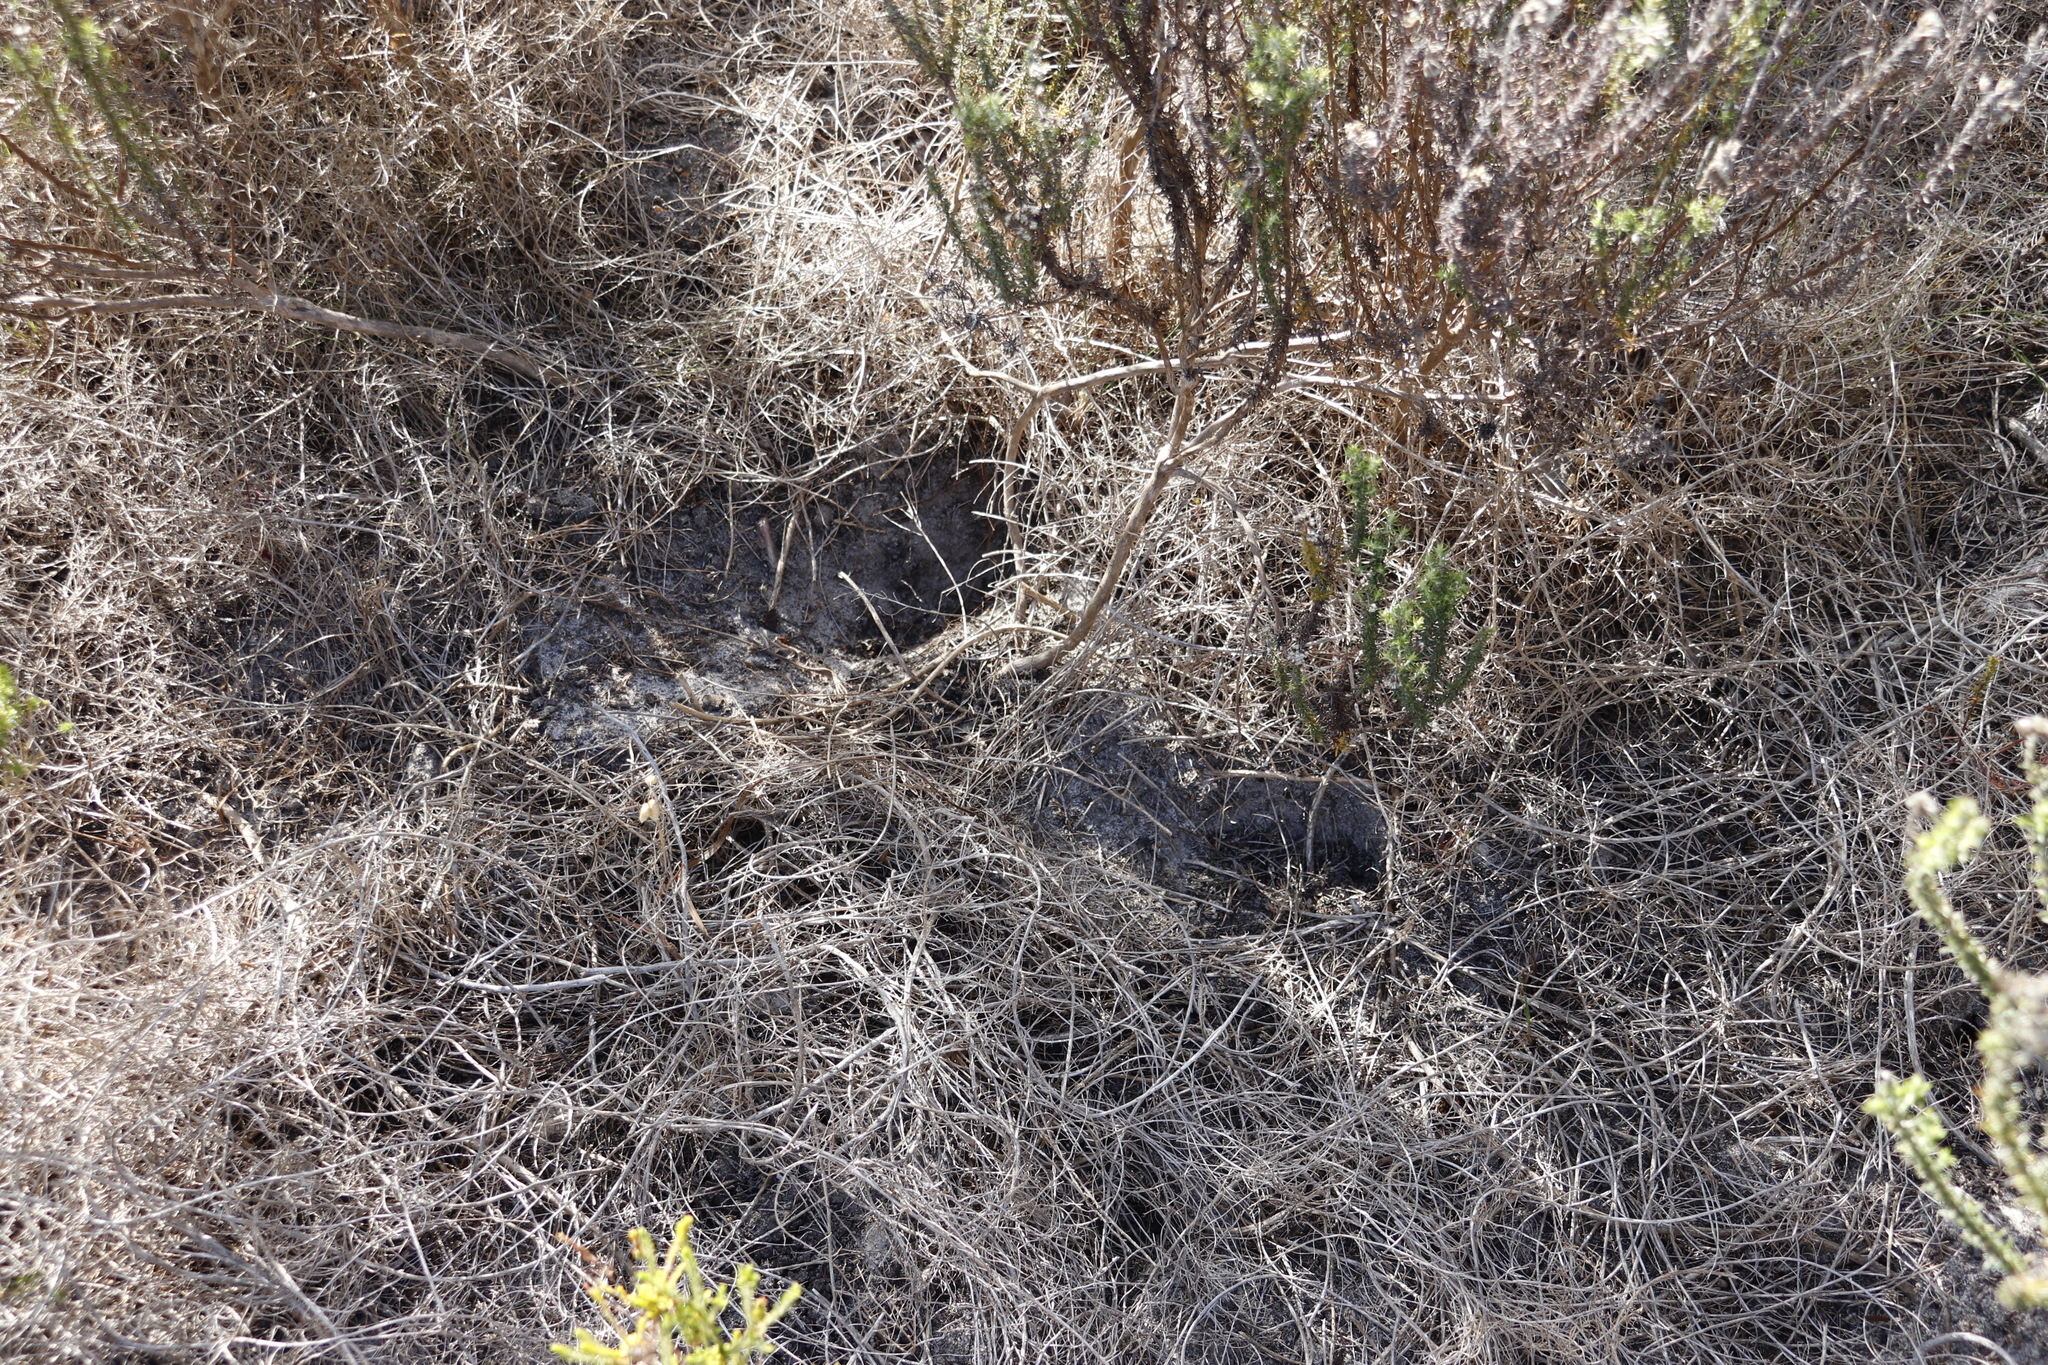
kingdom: Animalia
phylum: Chordata
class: Mammalia
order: Rodentia
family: Hystricidae
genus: Hystrix
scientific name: Hystrix africaeaustralis
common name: Cape porcupine
